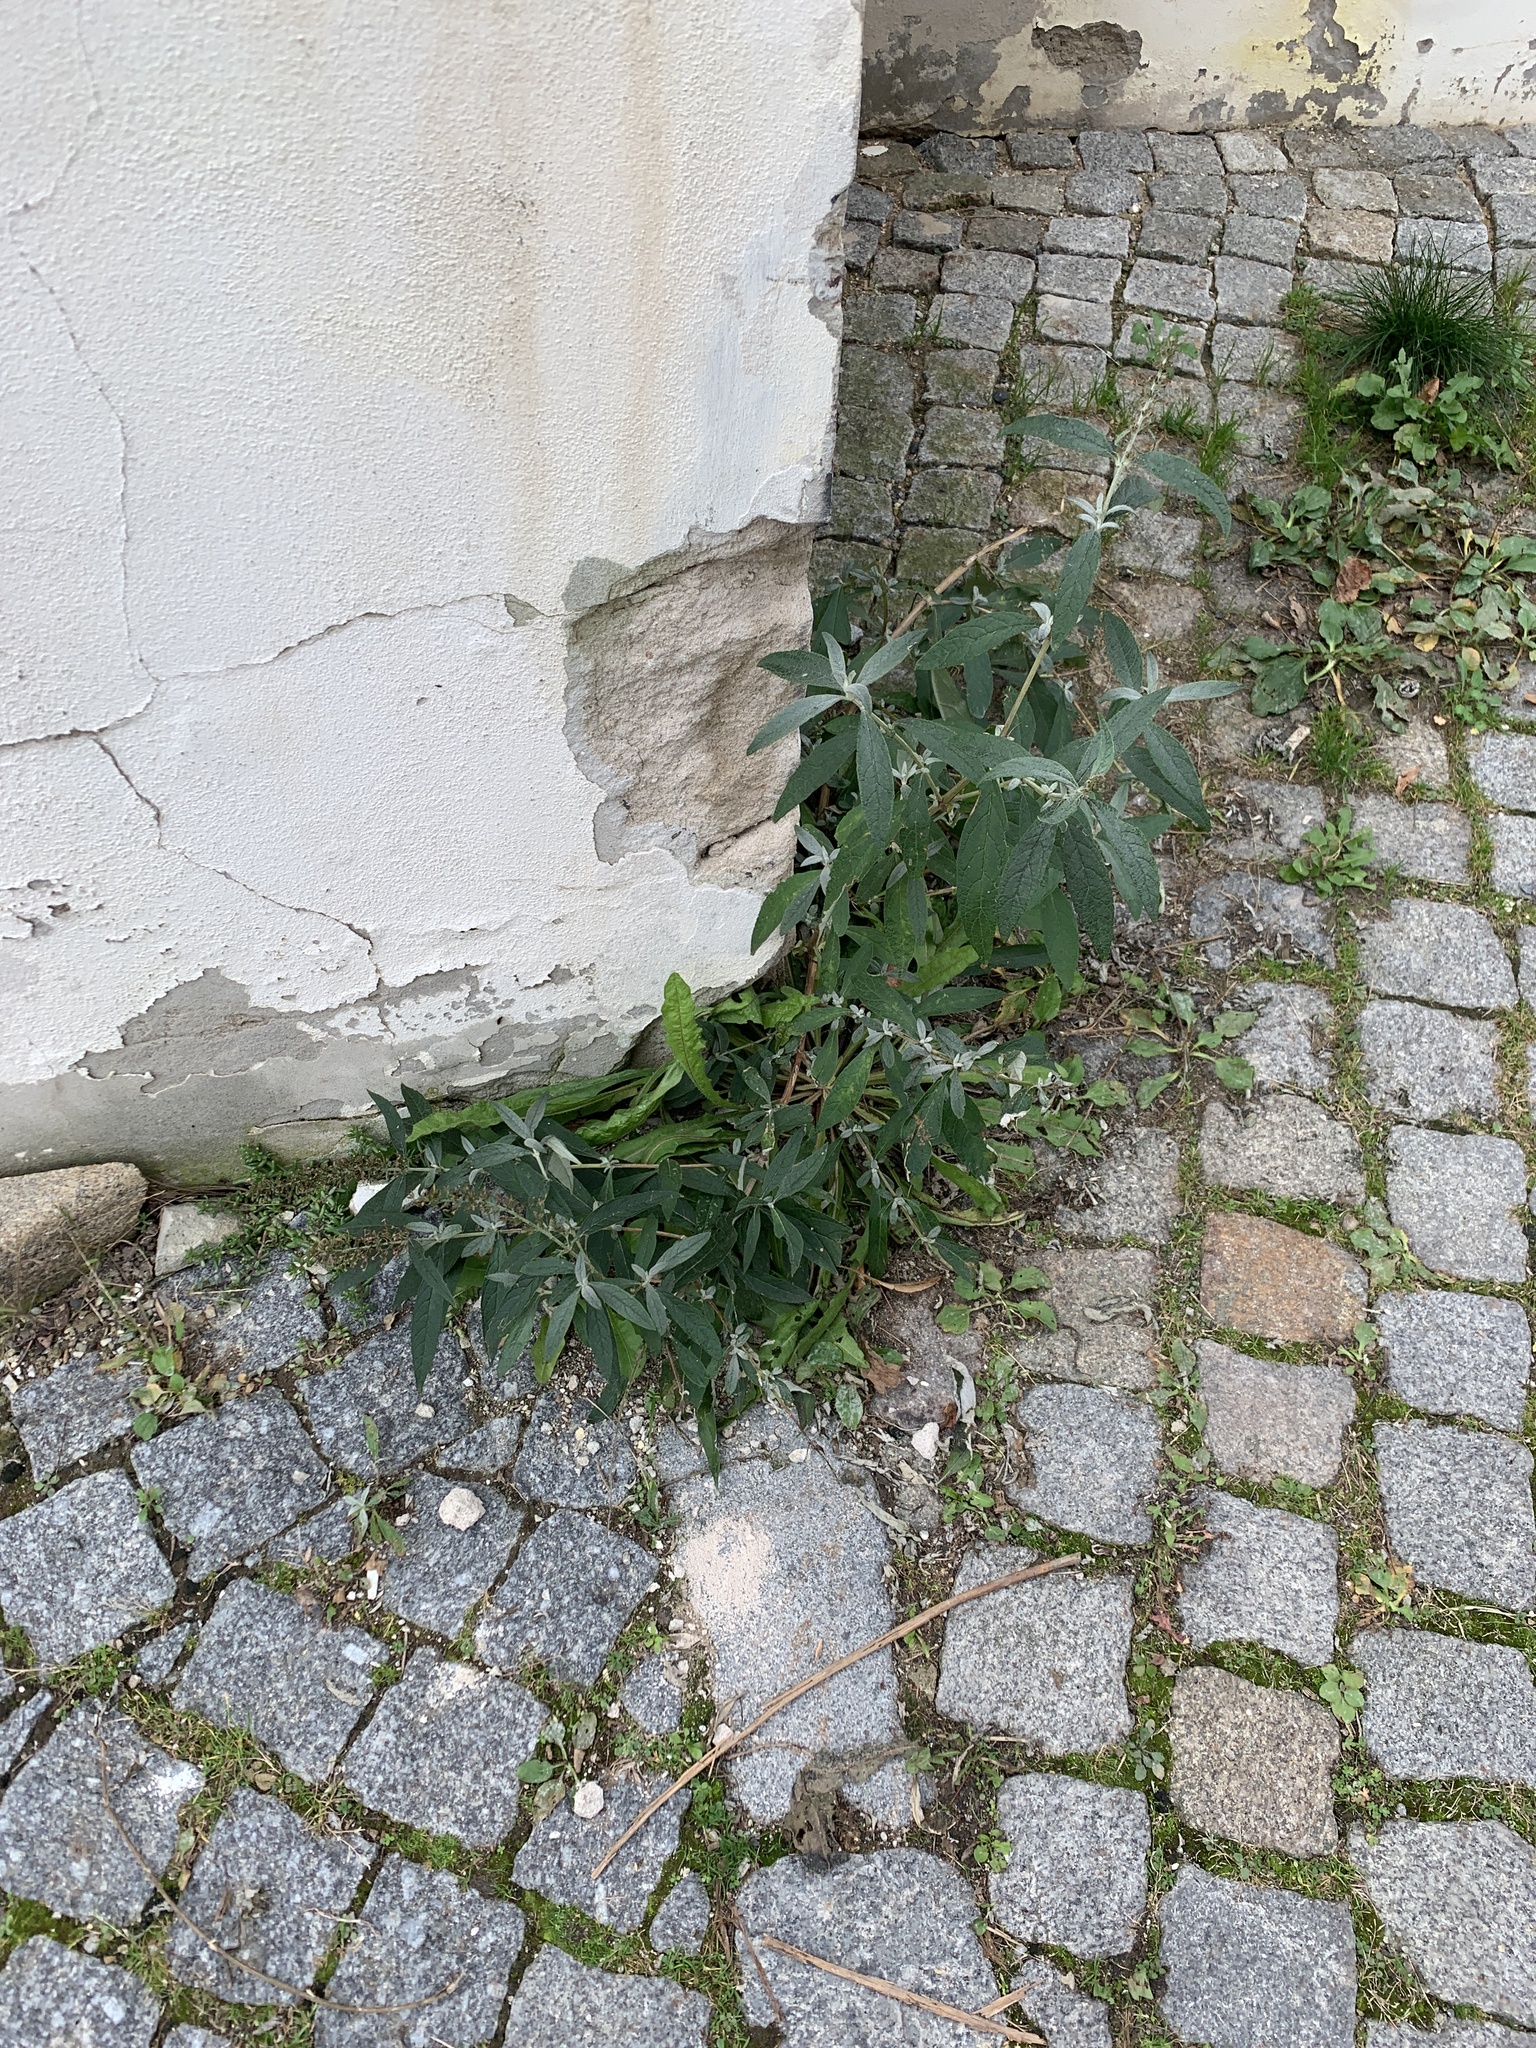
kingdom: Plantae
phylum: Tracheophyta
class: Magnoliopsida
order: Lamiales
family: Scrophulariaceae
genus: Buddleja
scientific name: Buddleja davidii
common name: Butterfly-bush
